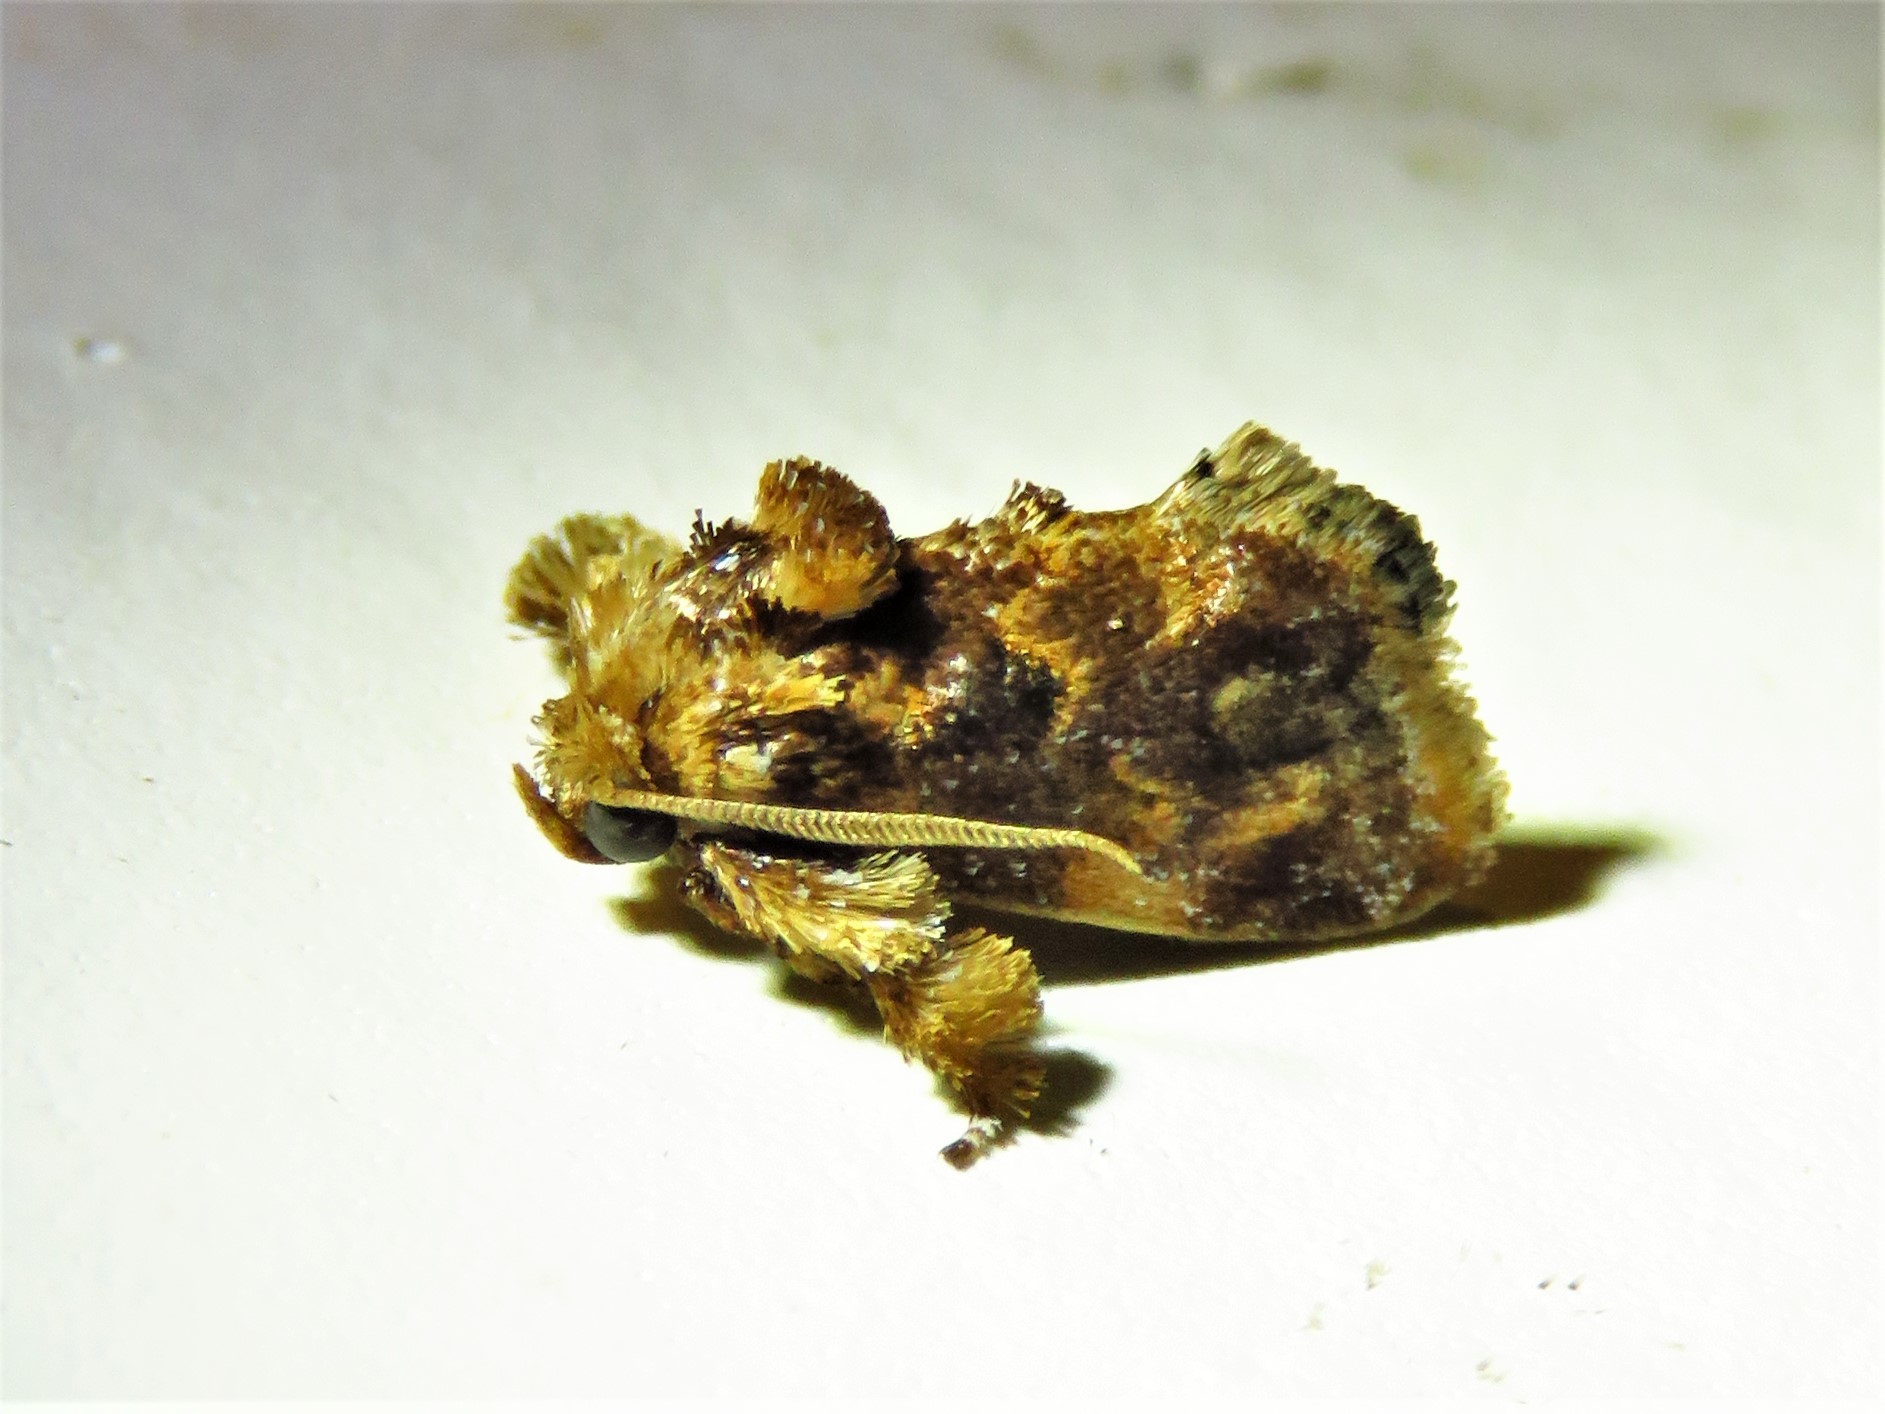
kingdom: Animalia
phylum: Arthropoda
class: Insecta
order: Lepidoptera
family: Limacodidae
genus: Isochaetes
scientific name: Isochaetes beutenmuelleri
